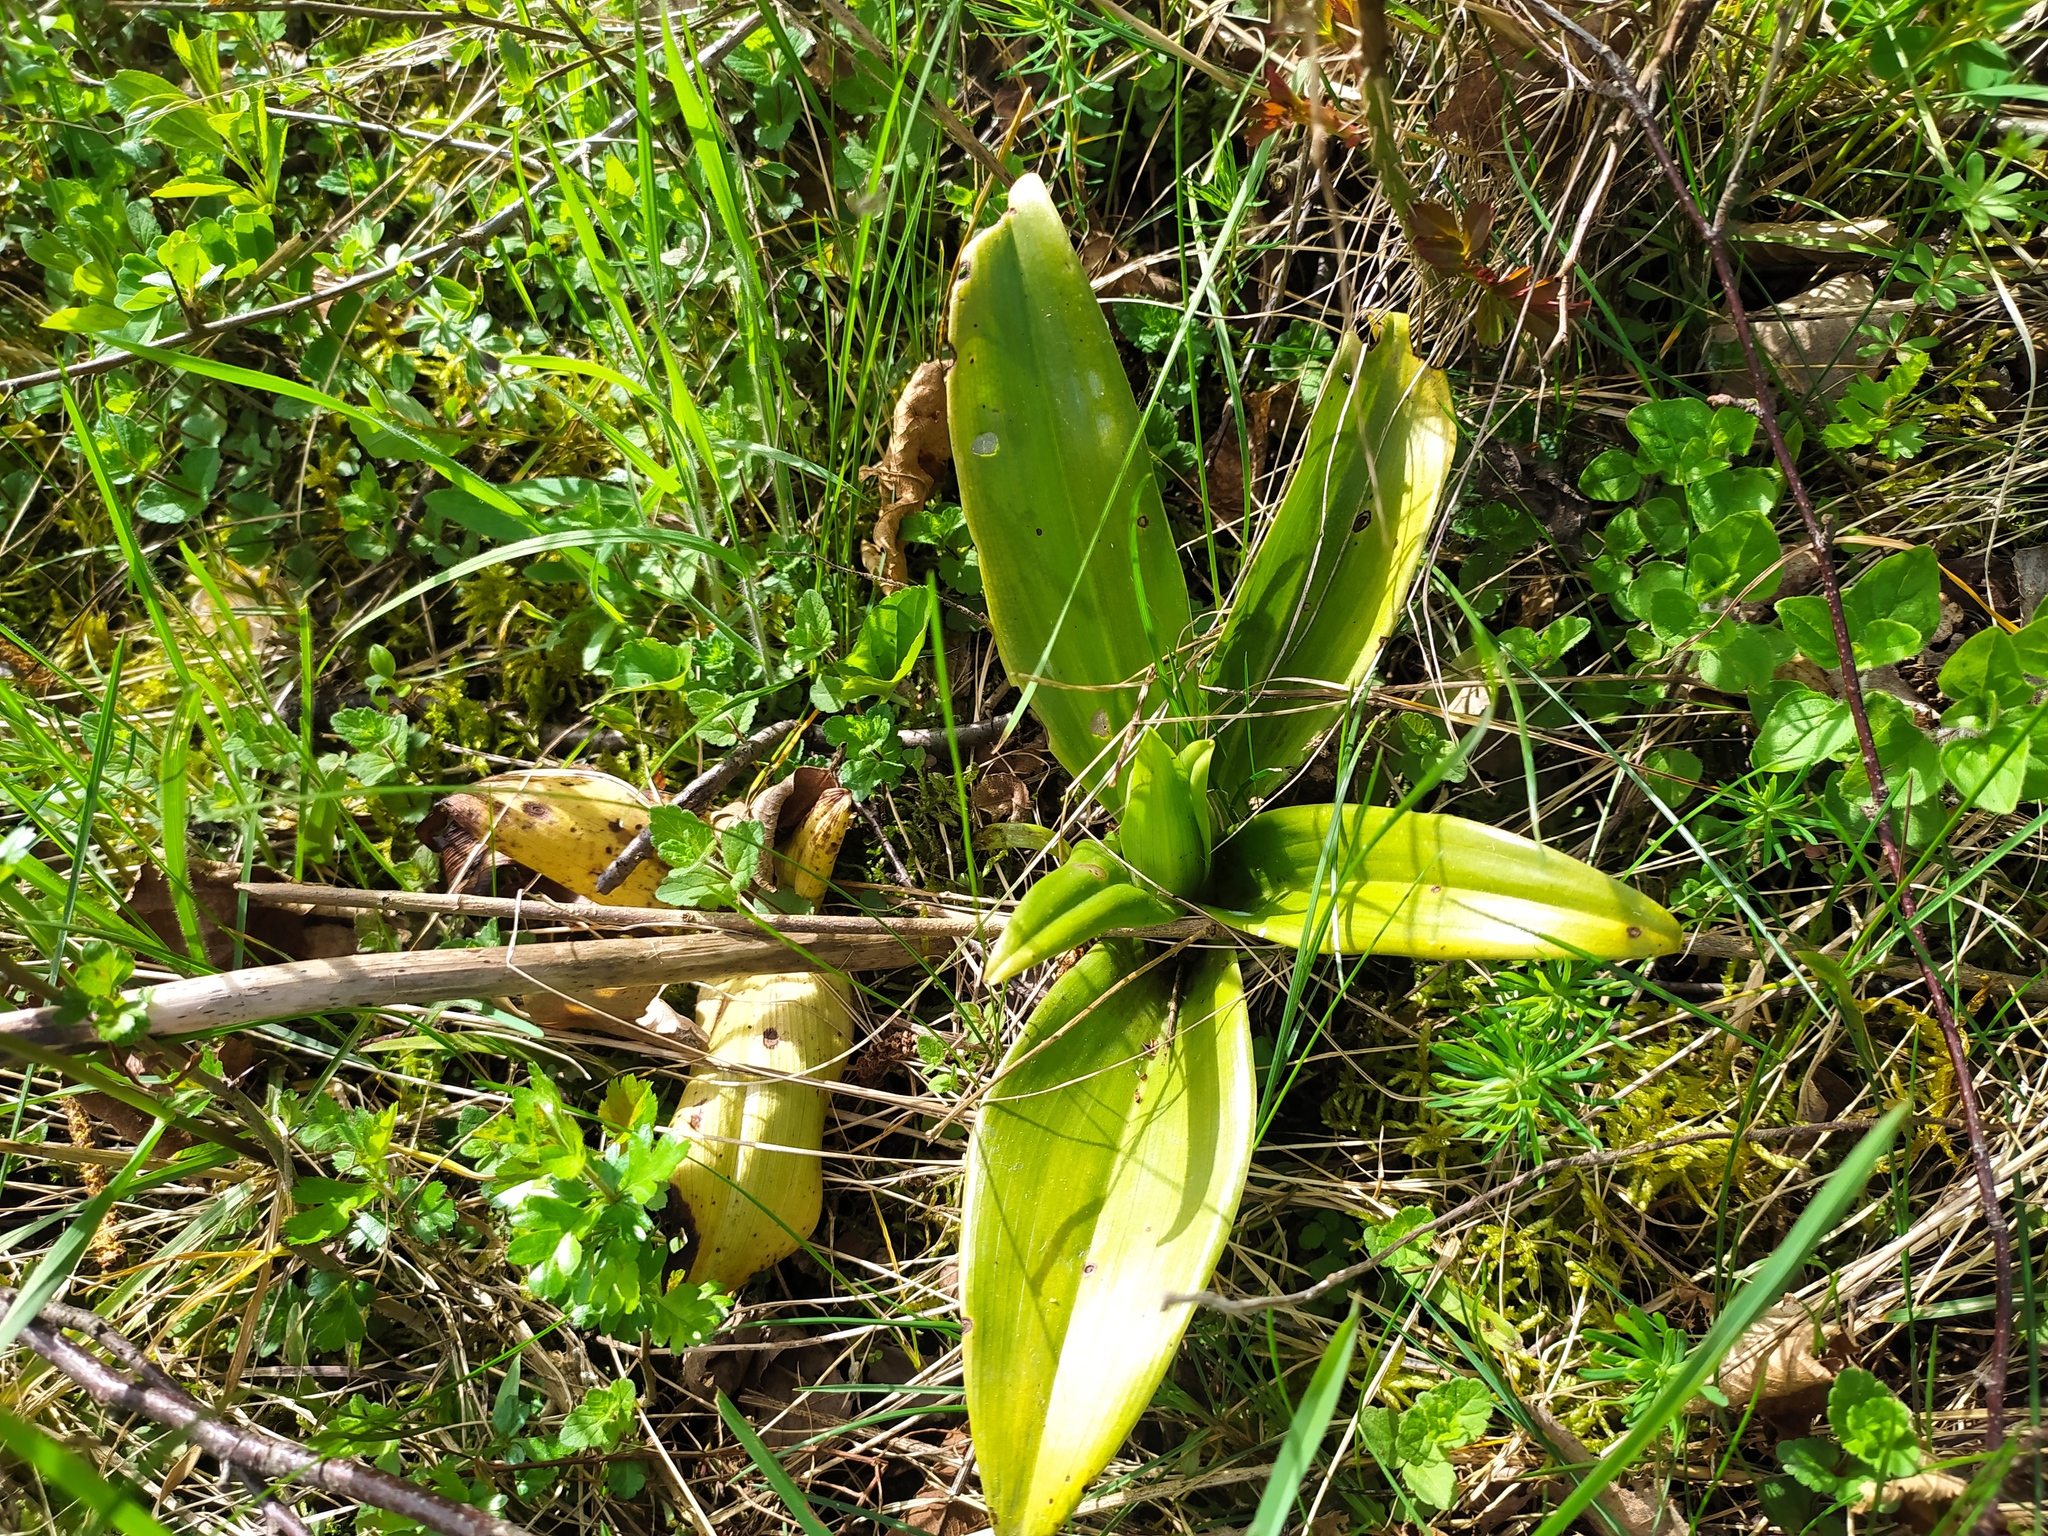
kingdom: Plantae
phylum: Tracheophyta
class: Liliopsida
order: Asparagales
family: Orchidaceae
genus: Himantoglossum
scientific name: Himantoglossum hircinum
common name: Lizard orchid
